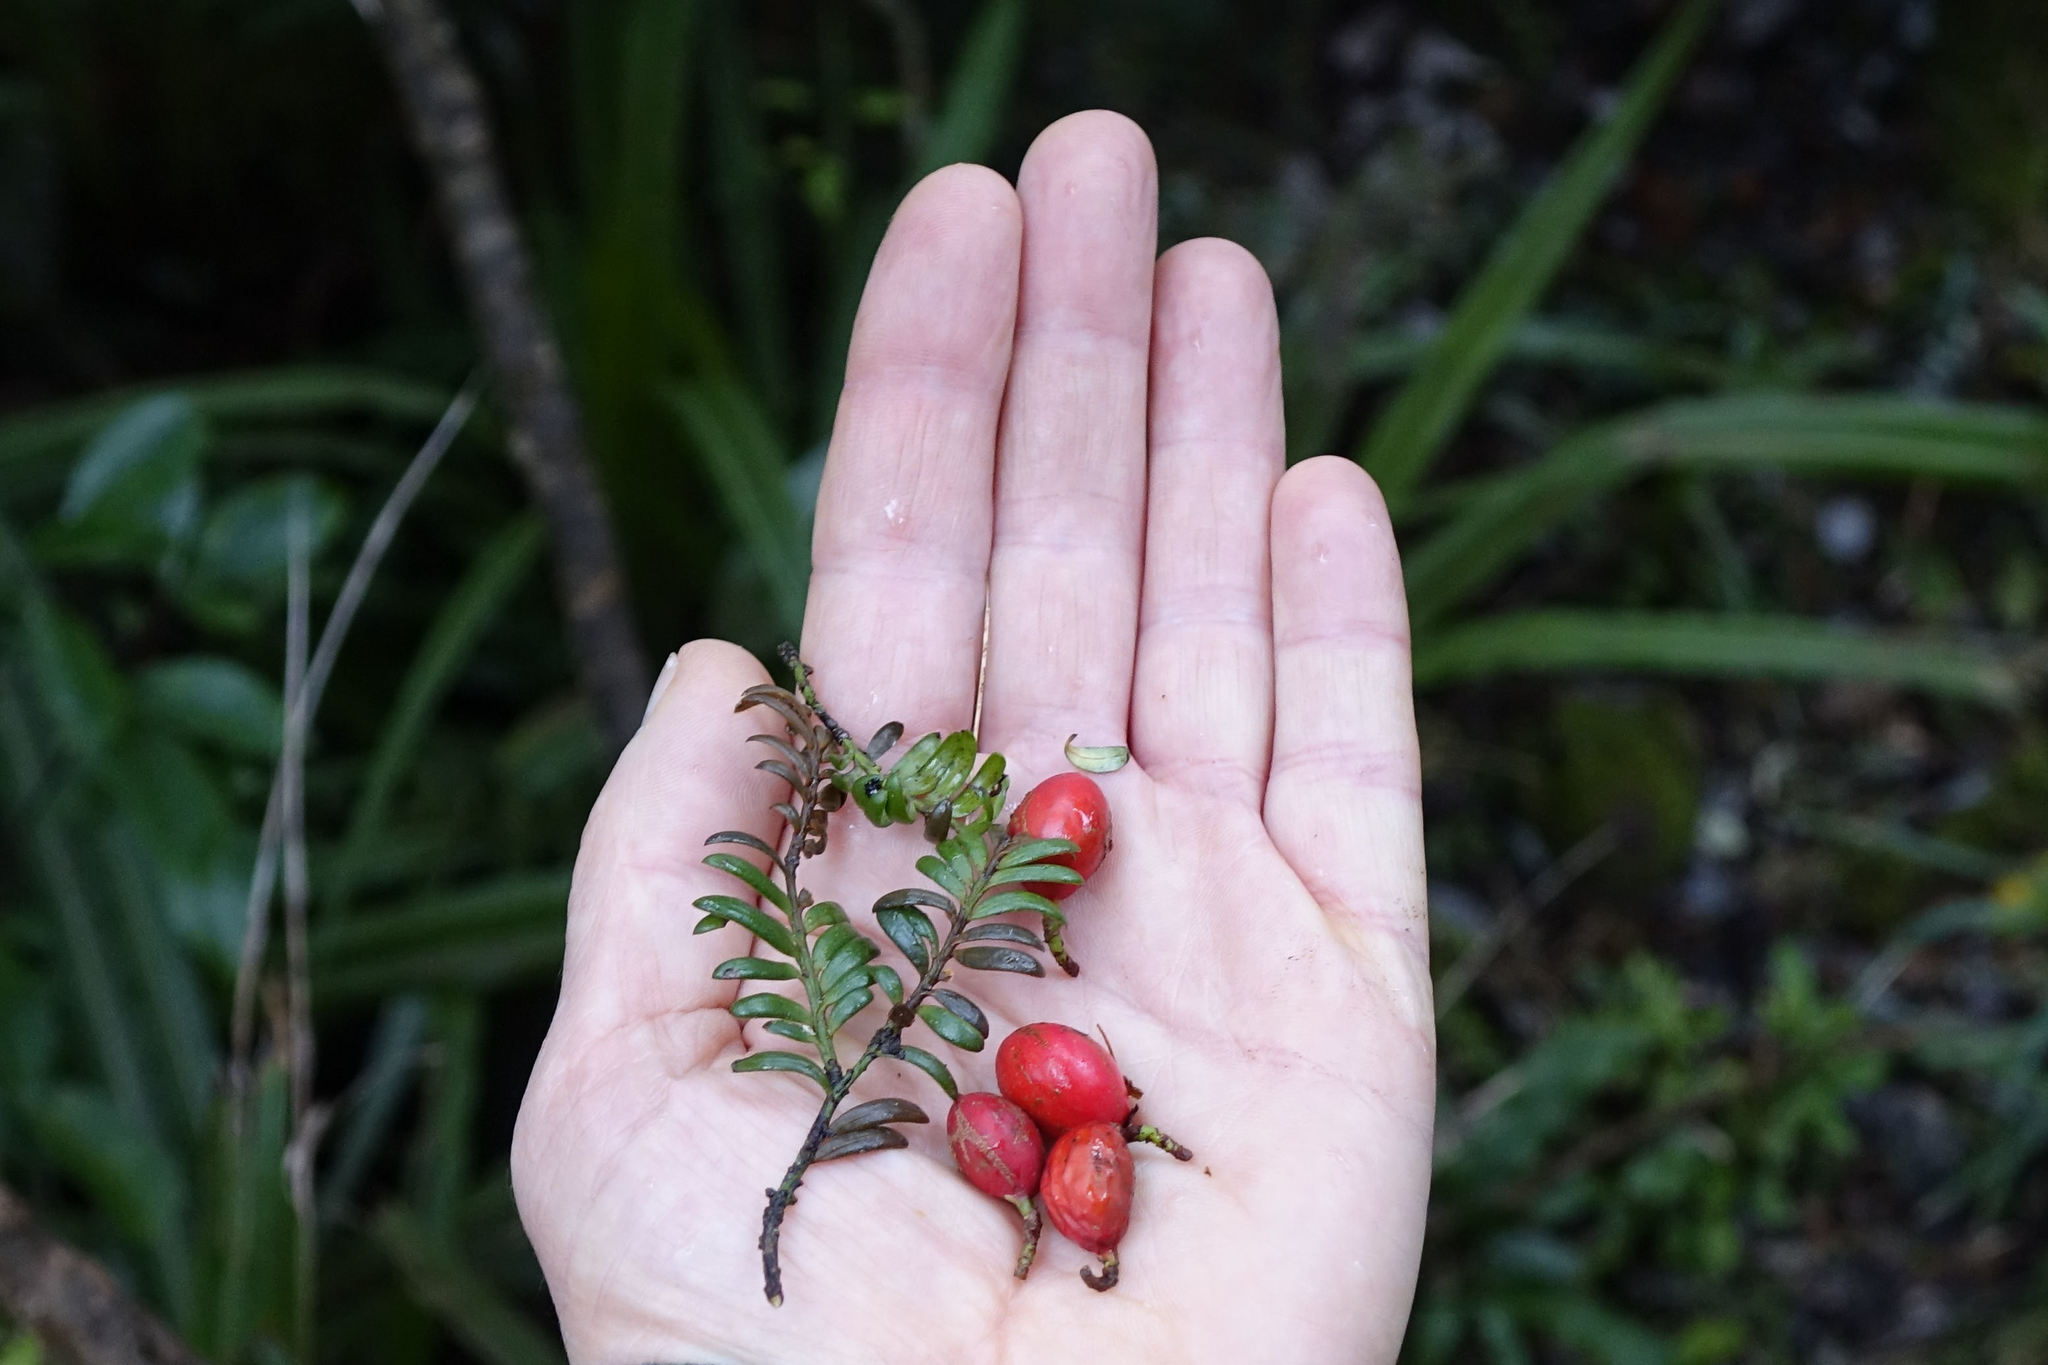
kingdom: Plantae
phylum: Tracheophyta
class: Pinopsida
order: Pinales
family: Podocarpaceae
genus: Prumnopitys
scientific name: Prumnopitys ferruginea
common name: Brown pine
